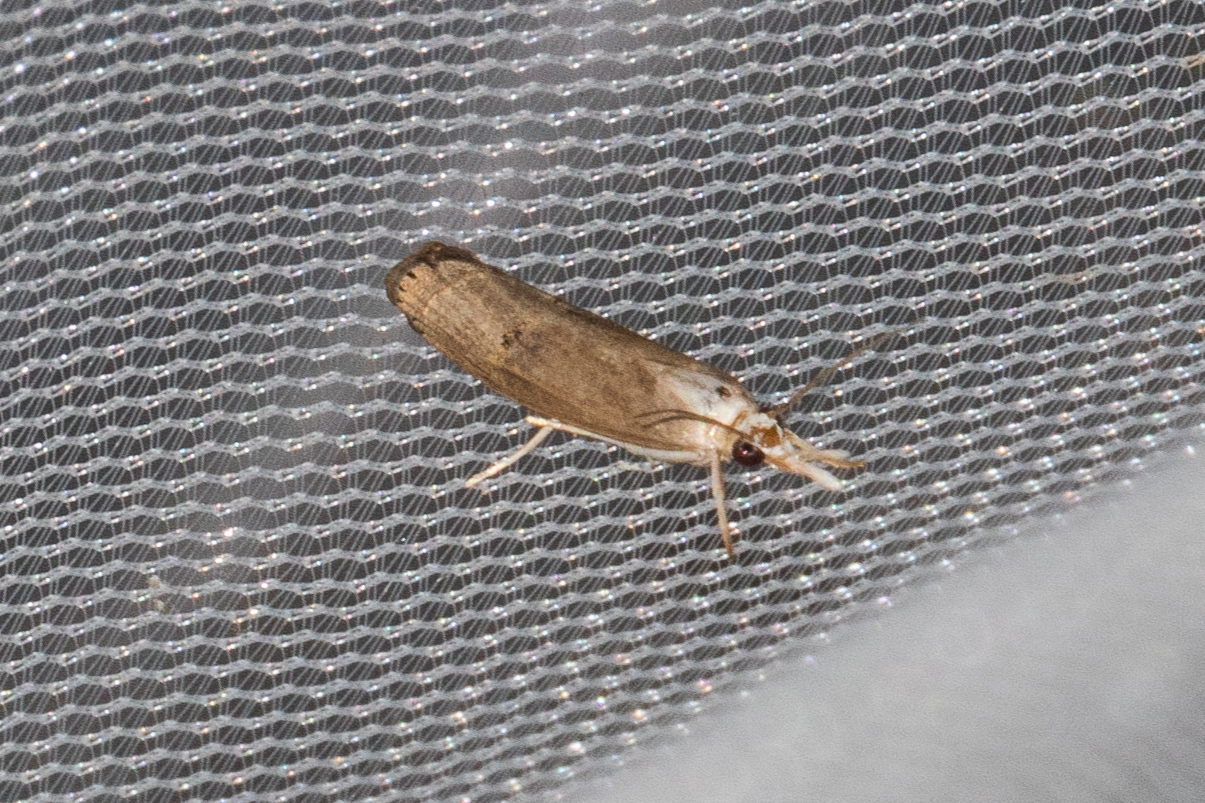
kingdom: Animalia
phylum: Arthropoda
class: Insecta
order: Lepidoptera
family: Crambidae
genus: Parapediasia
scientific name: Parapediasia teterellus
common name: Bluegrass webworm moth
